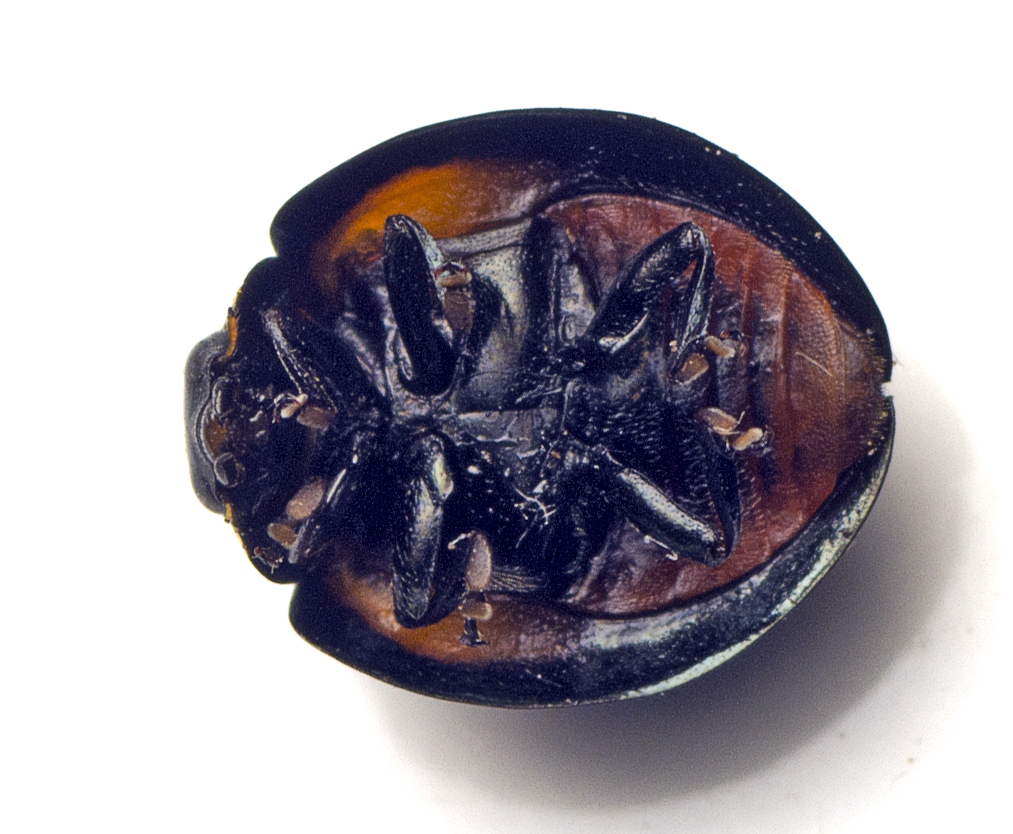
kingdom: Animalia
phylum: Arthropoda
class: Insecta
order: Coleoptera
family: Coccinellidae
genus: Orcus
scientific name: Orcus australasiae
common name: Lady beetle
